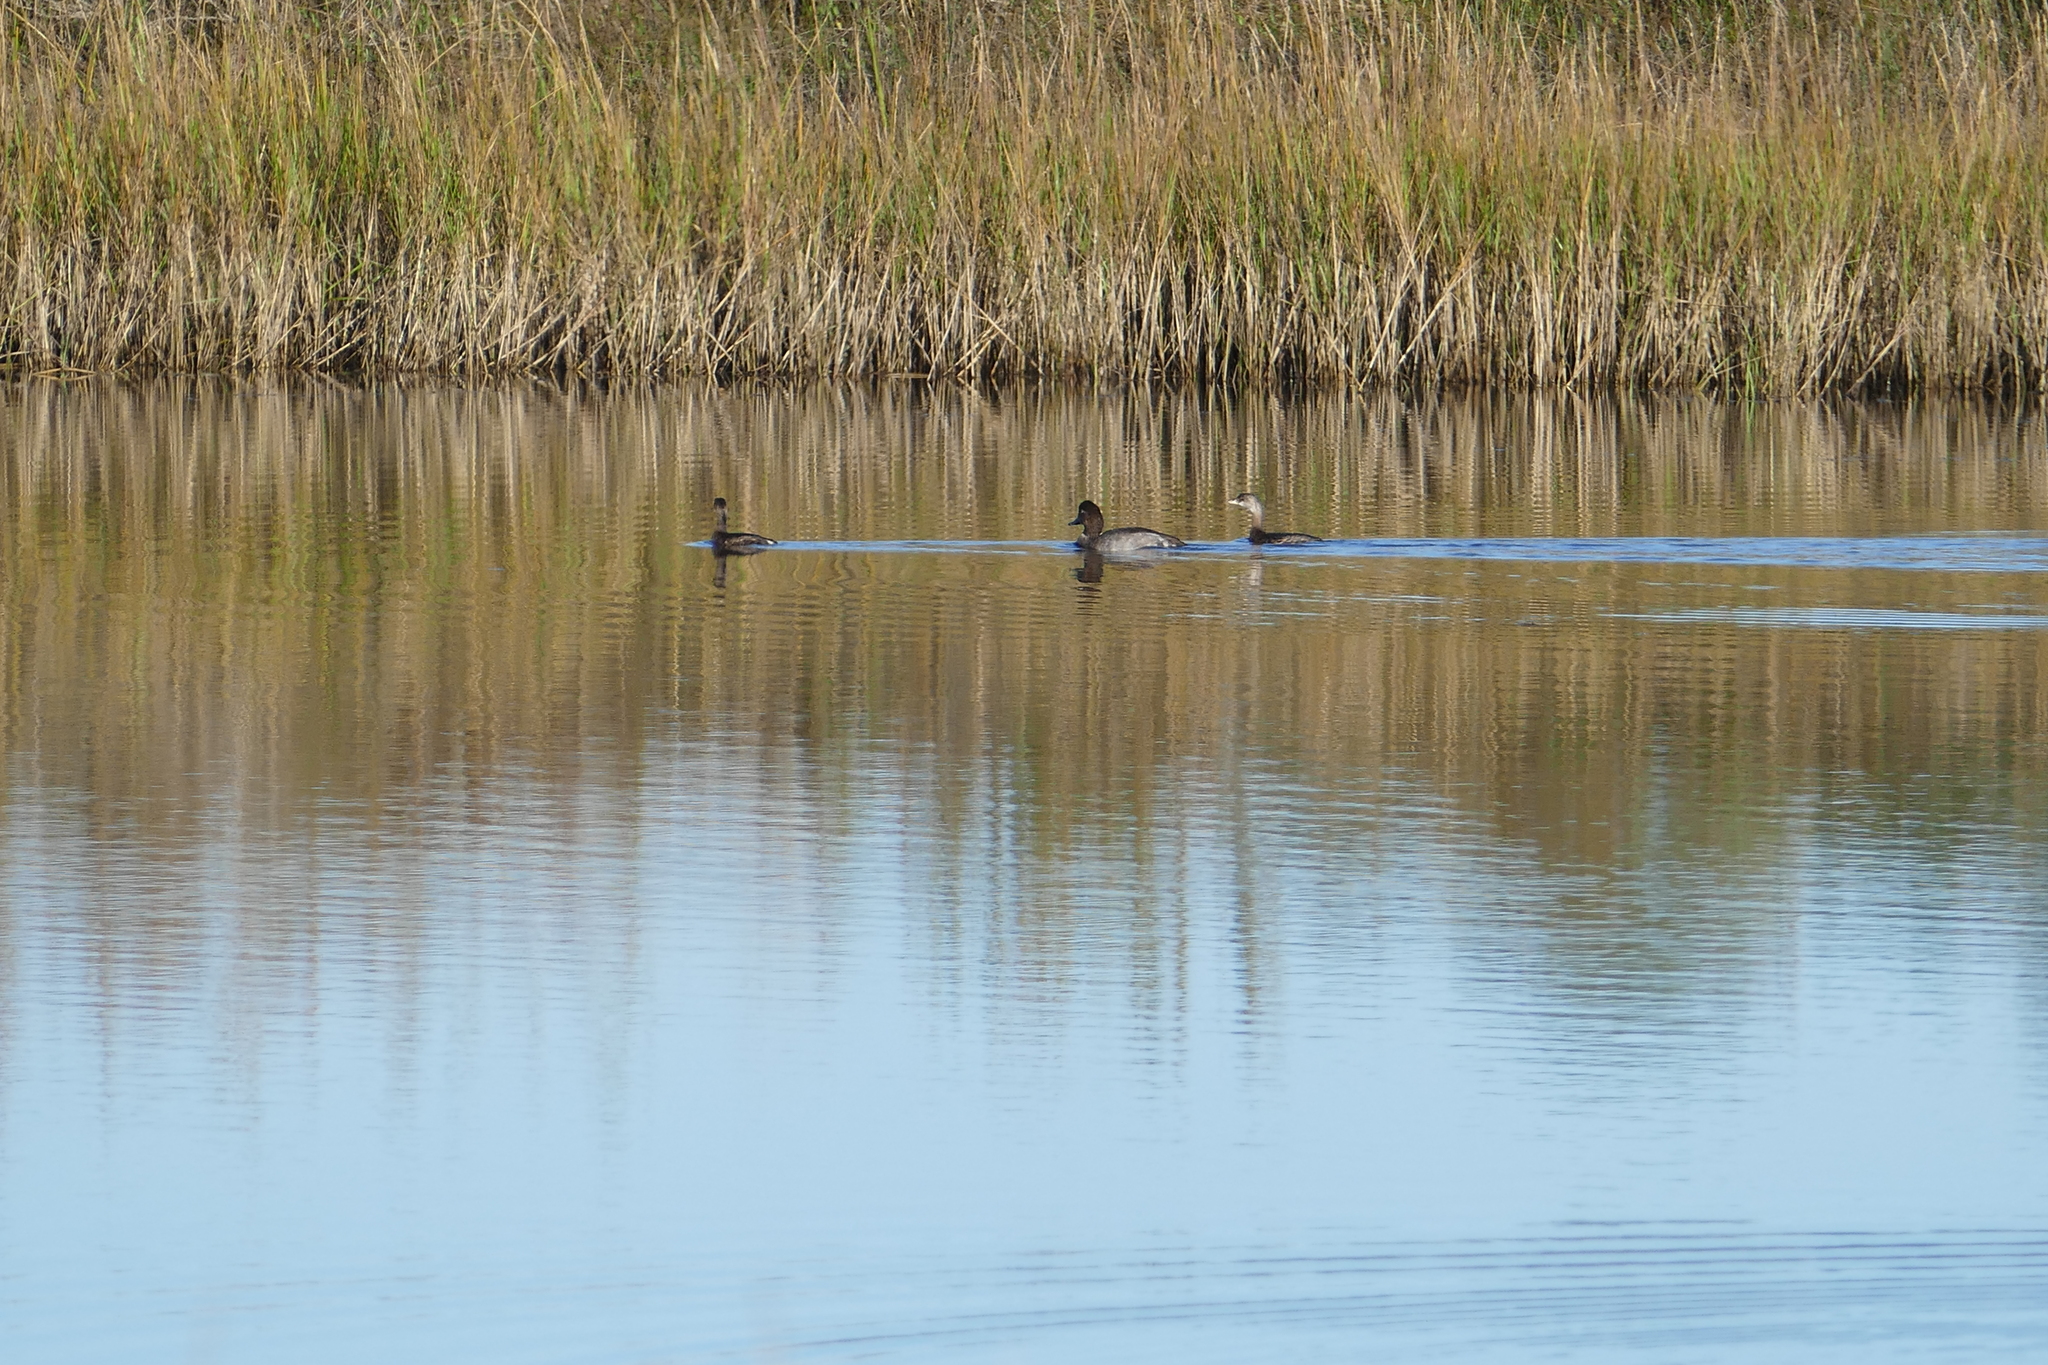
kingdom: Animalia
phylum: Chordata
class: Aves
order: Anseriformes
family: Anatidae
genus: Aythya
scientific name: Aythya americana
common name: Redhead
